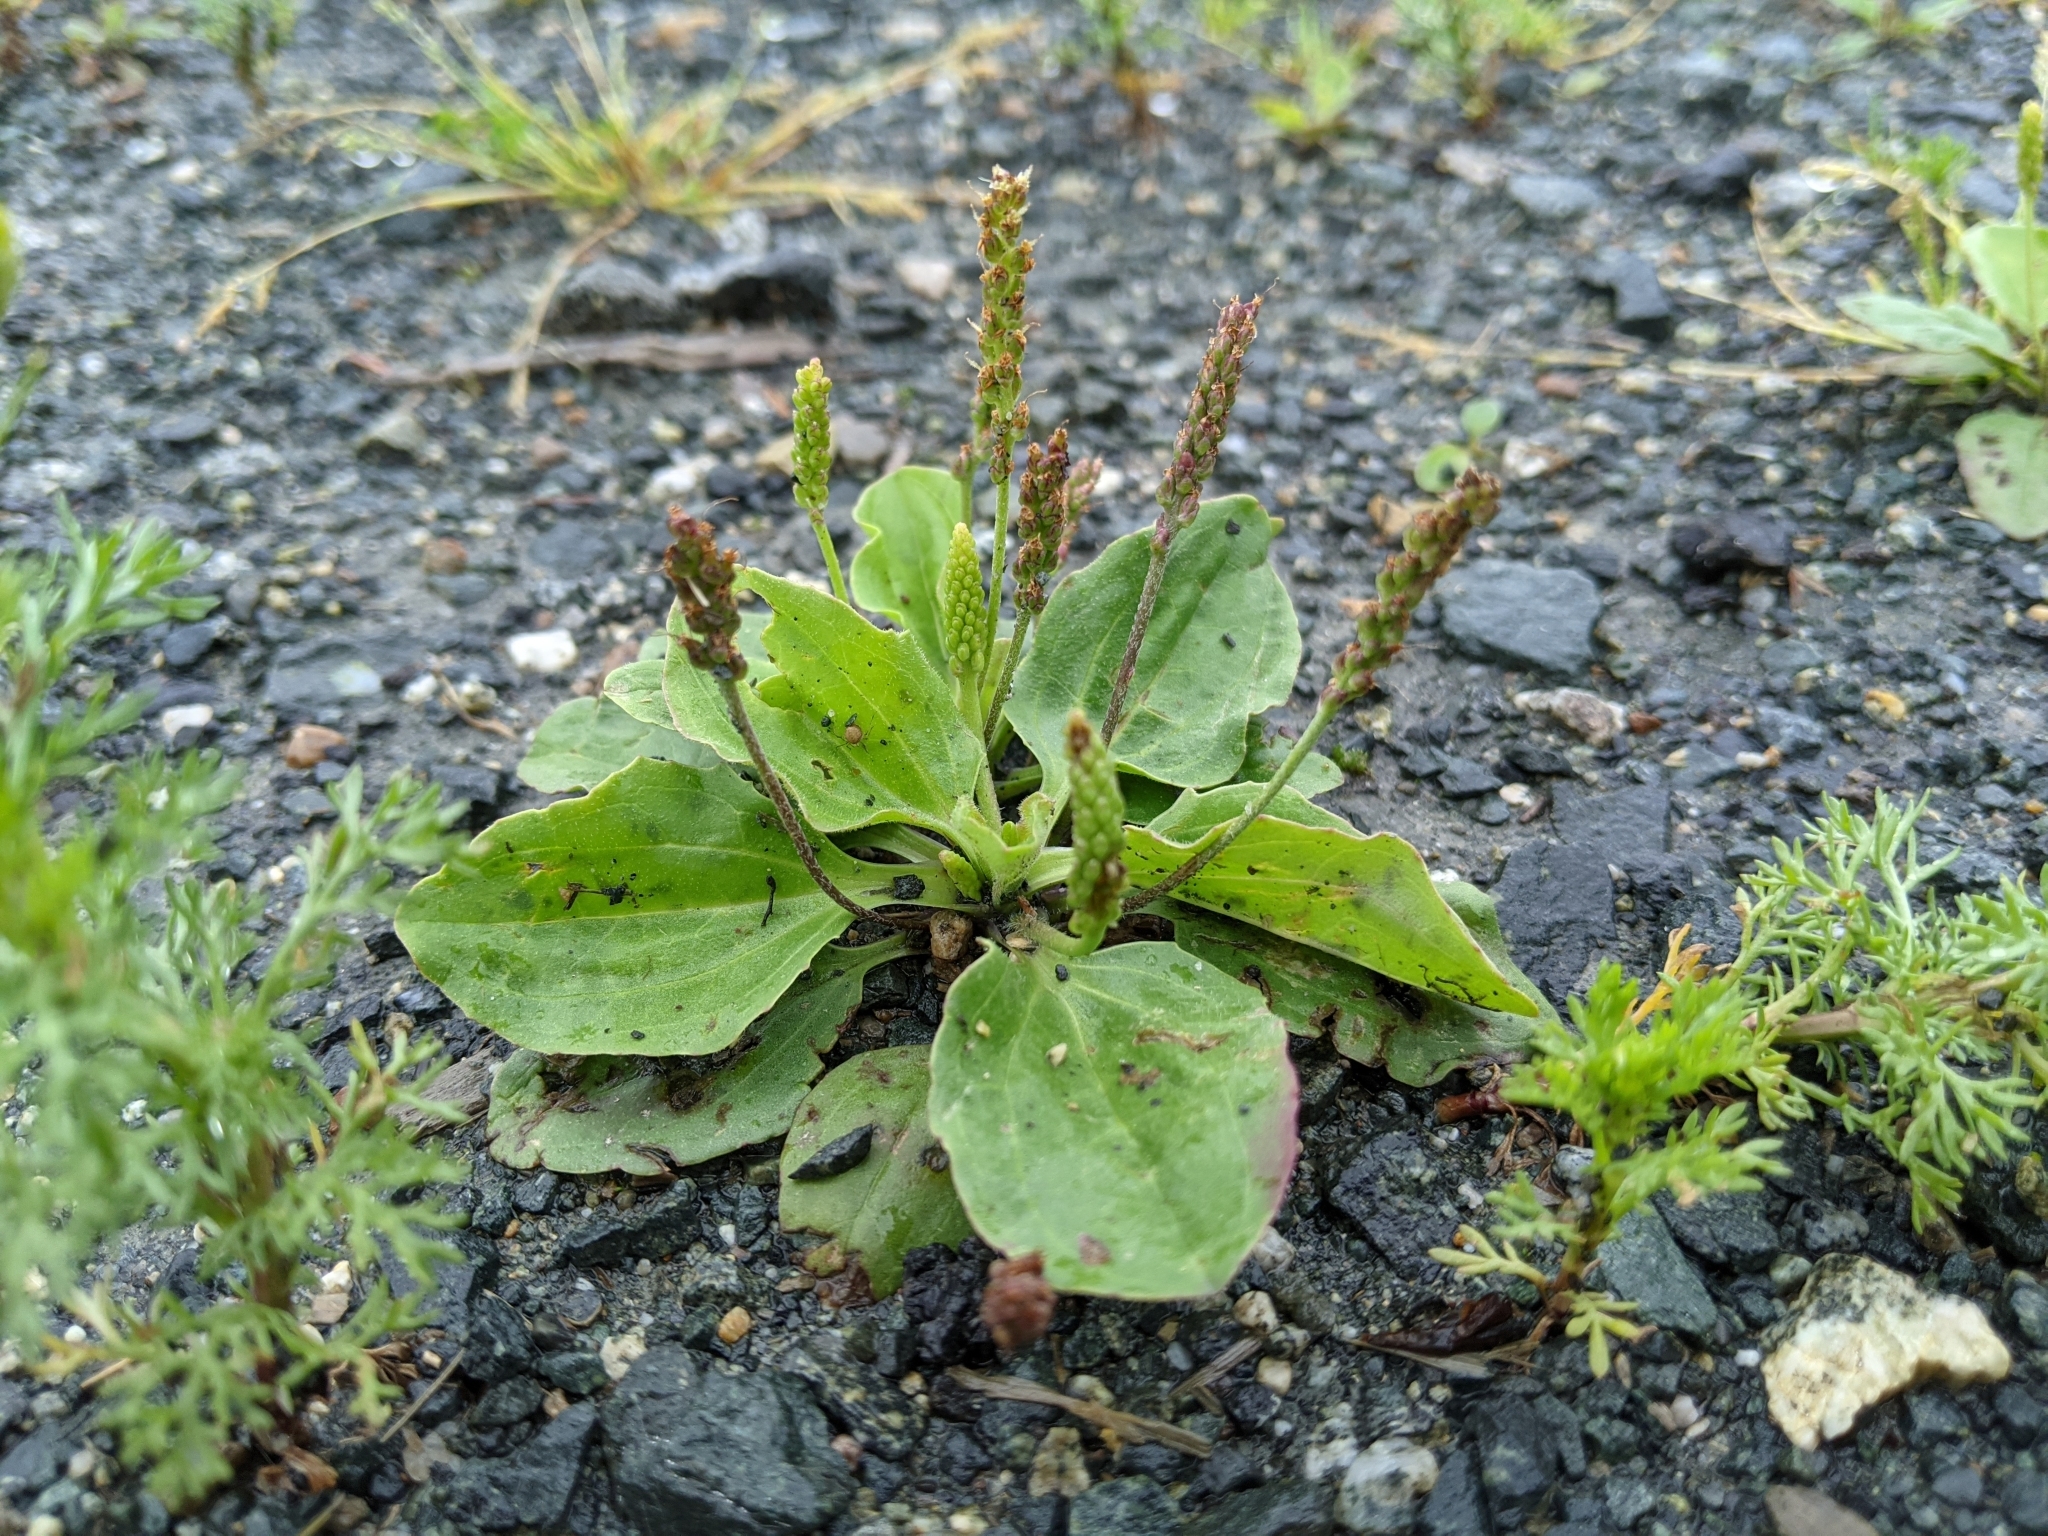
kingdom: Plantae
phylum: Tracheophyta
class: Magnoliopsida
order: Lamiales
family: Plantaginaceae
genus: Plantago
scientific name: Plantago major
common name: Common plantain
